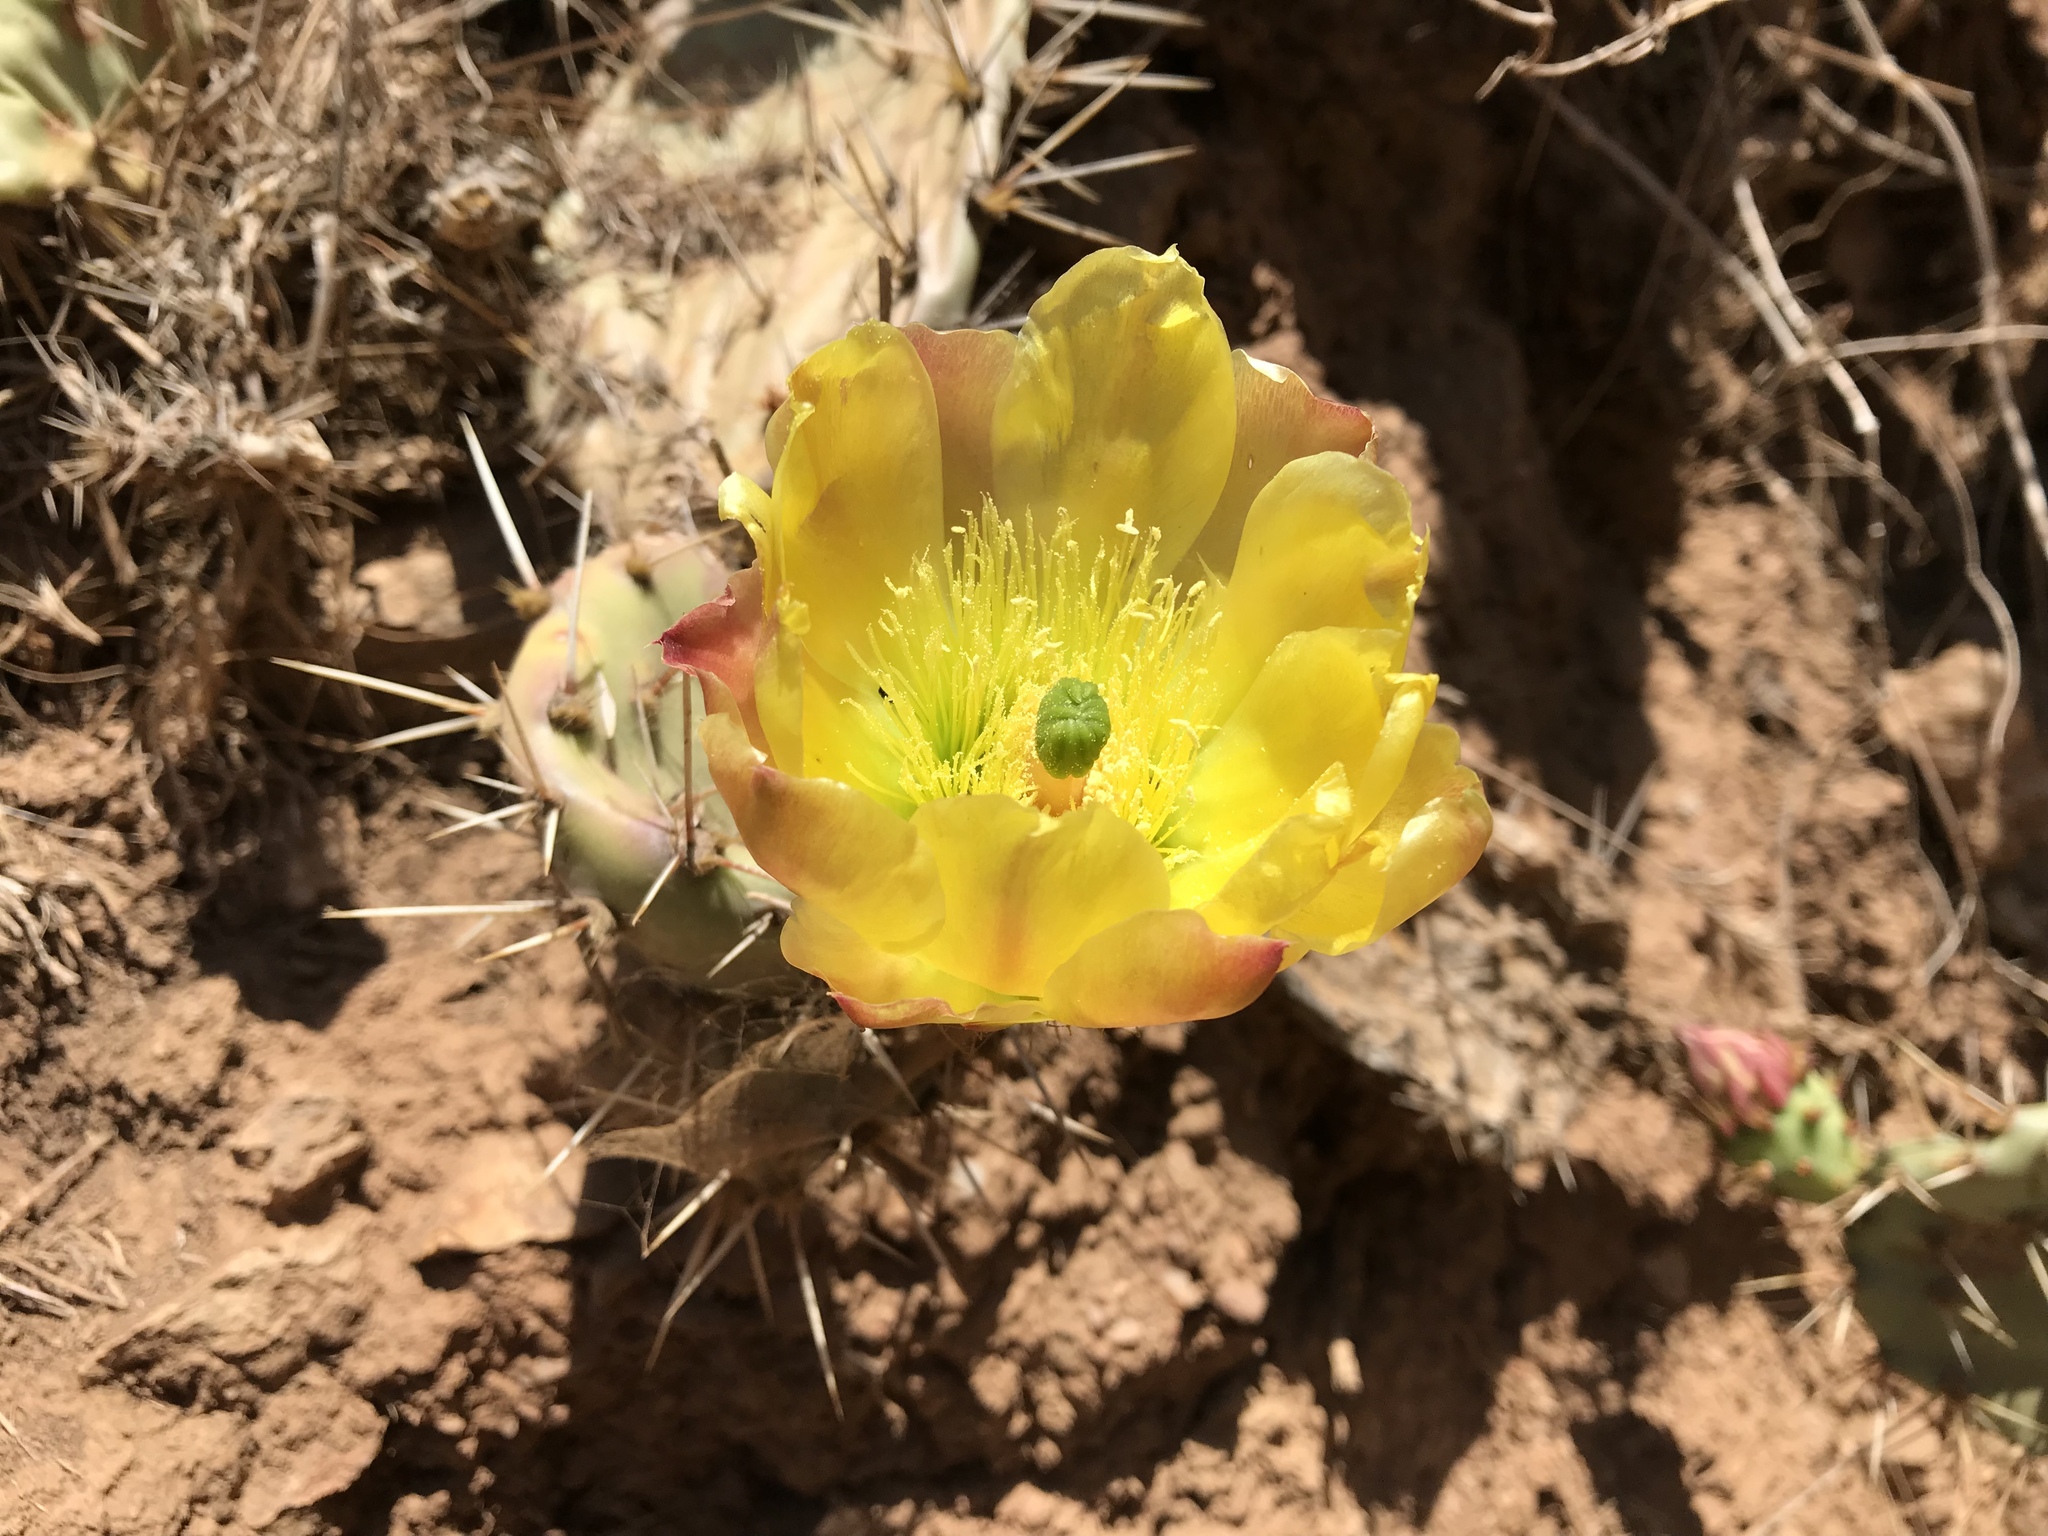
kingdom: Plantae
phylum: Tracheophyta
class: Magnoliopsida
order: Caryophyllales
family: Cactaceae
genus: Opuntia
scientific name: Opuntia littoralis
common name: Coastal prickly-pear
